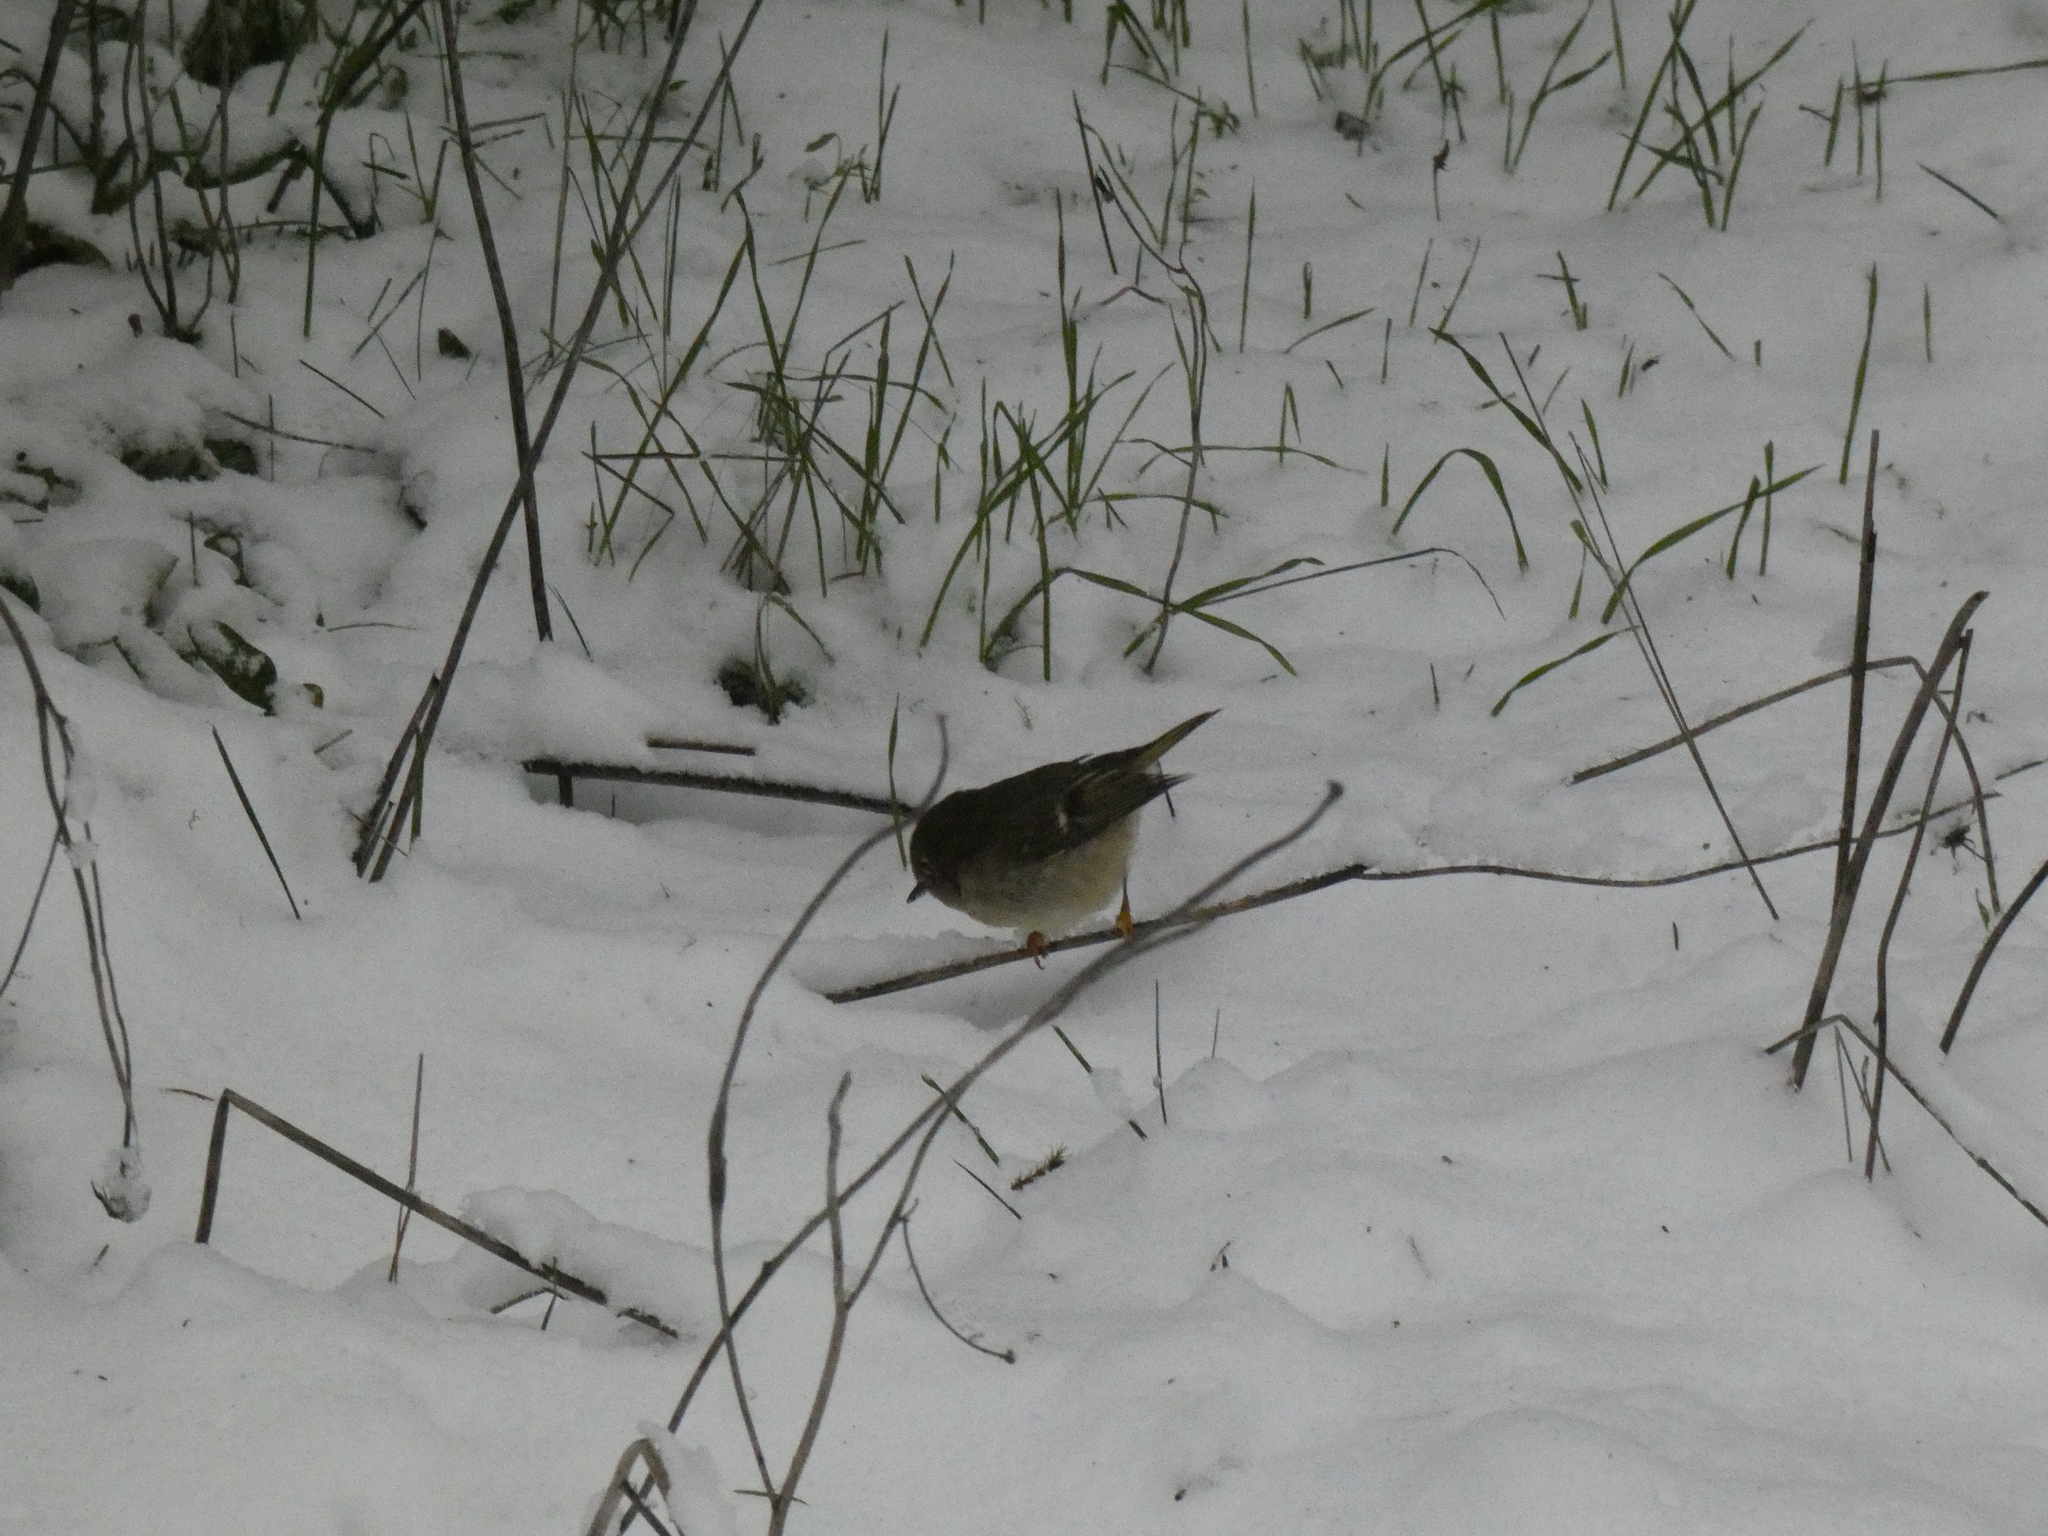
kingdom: Animalia
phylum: Chordata
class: Aves
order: Passeriformes
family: Regulidae
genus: Regulus
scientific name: Regulus calendula
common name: Ruby-crowned kinglet
